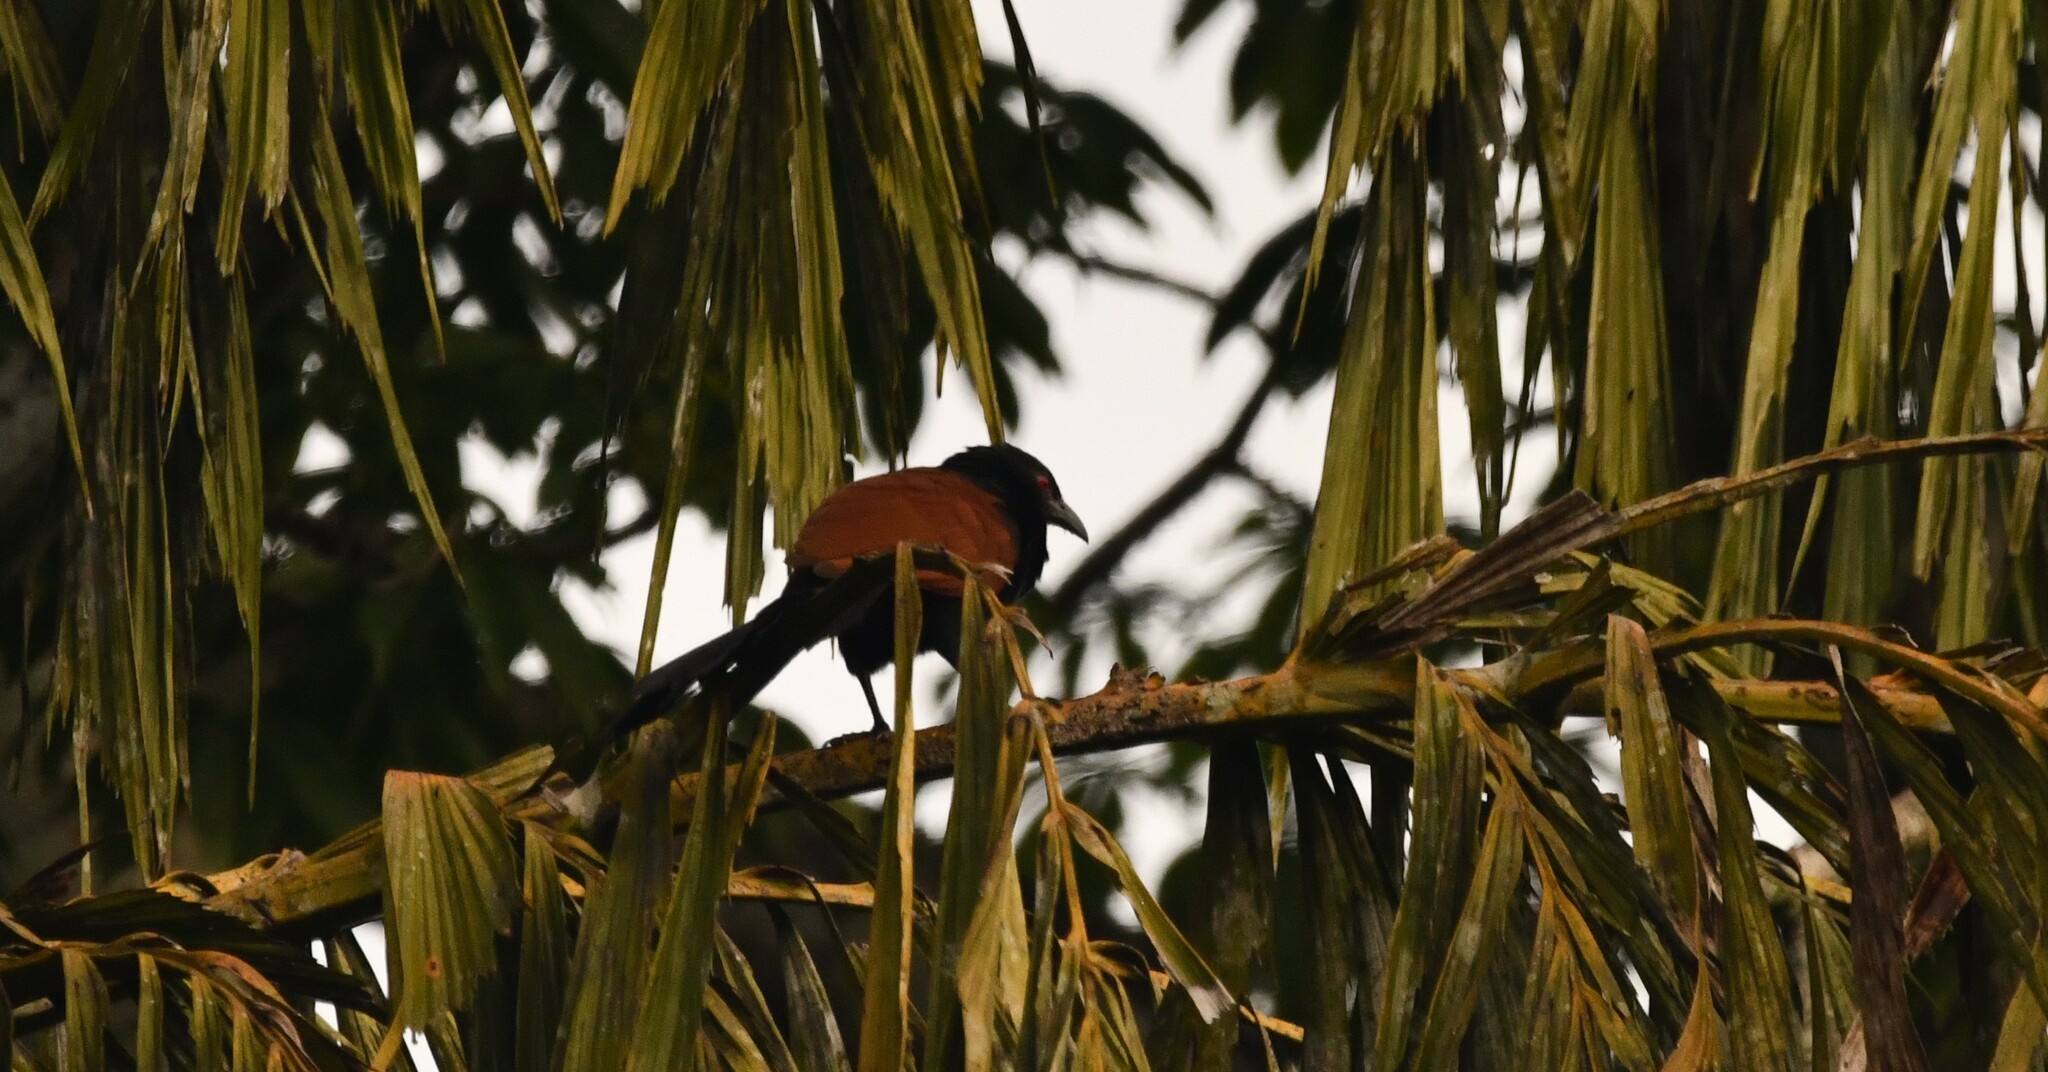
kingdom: Animalia
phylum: Chordata
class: Aves
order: Cuculiformes
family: Cuculidae
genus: Centropus
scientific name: Centropus sinensis
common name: Greater coucal
